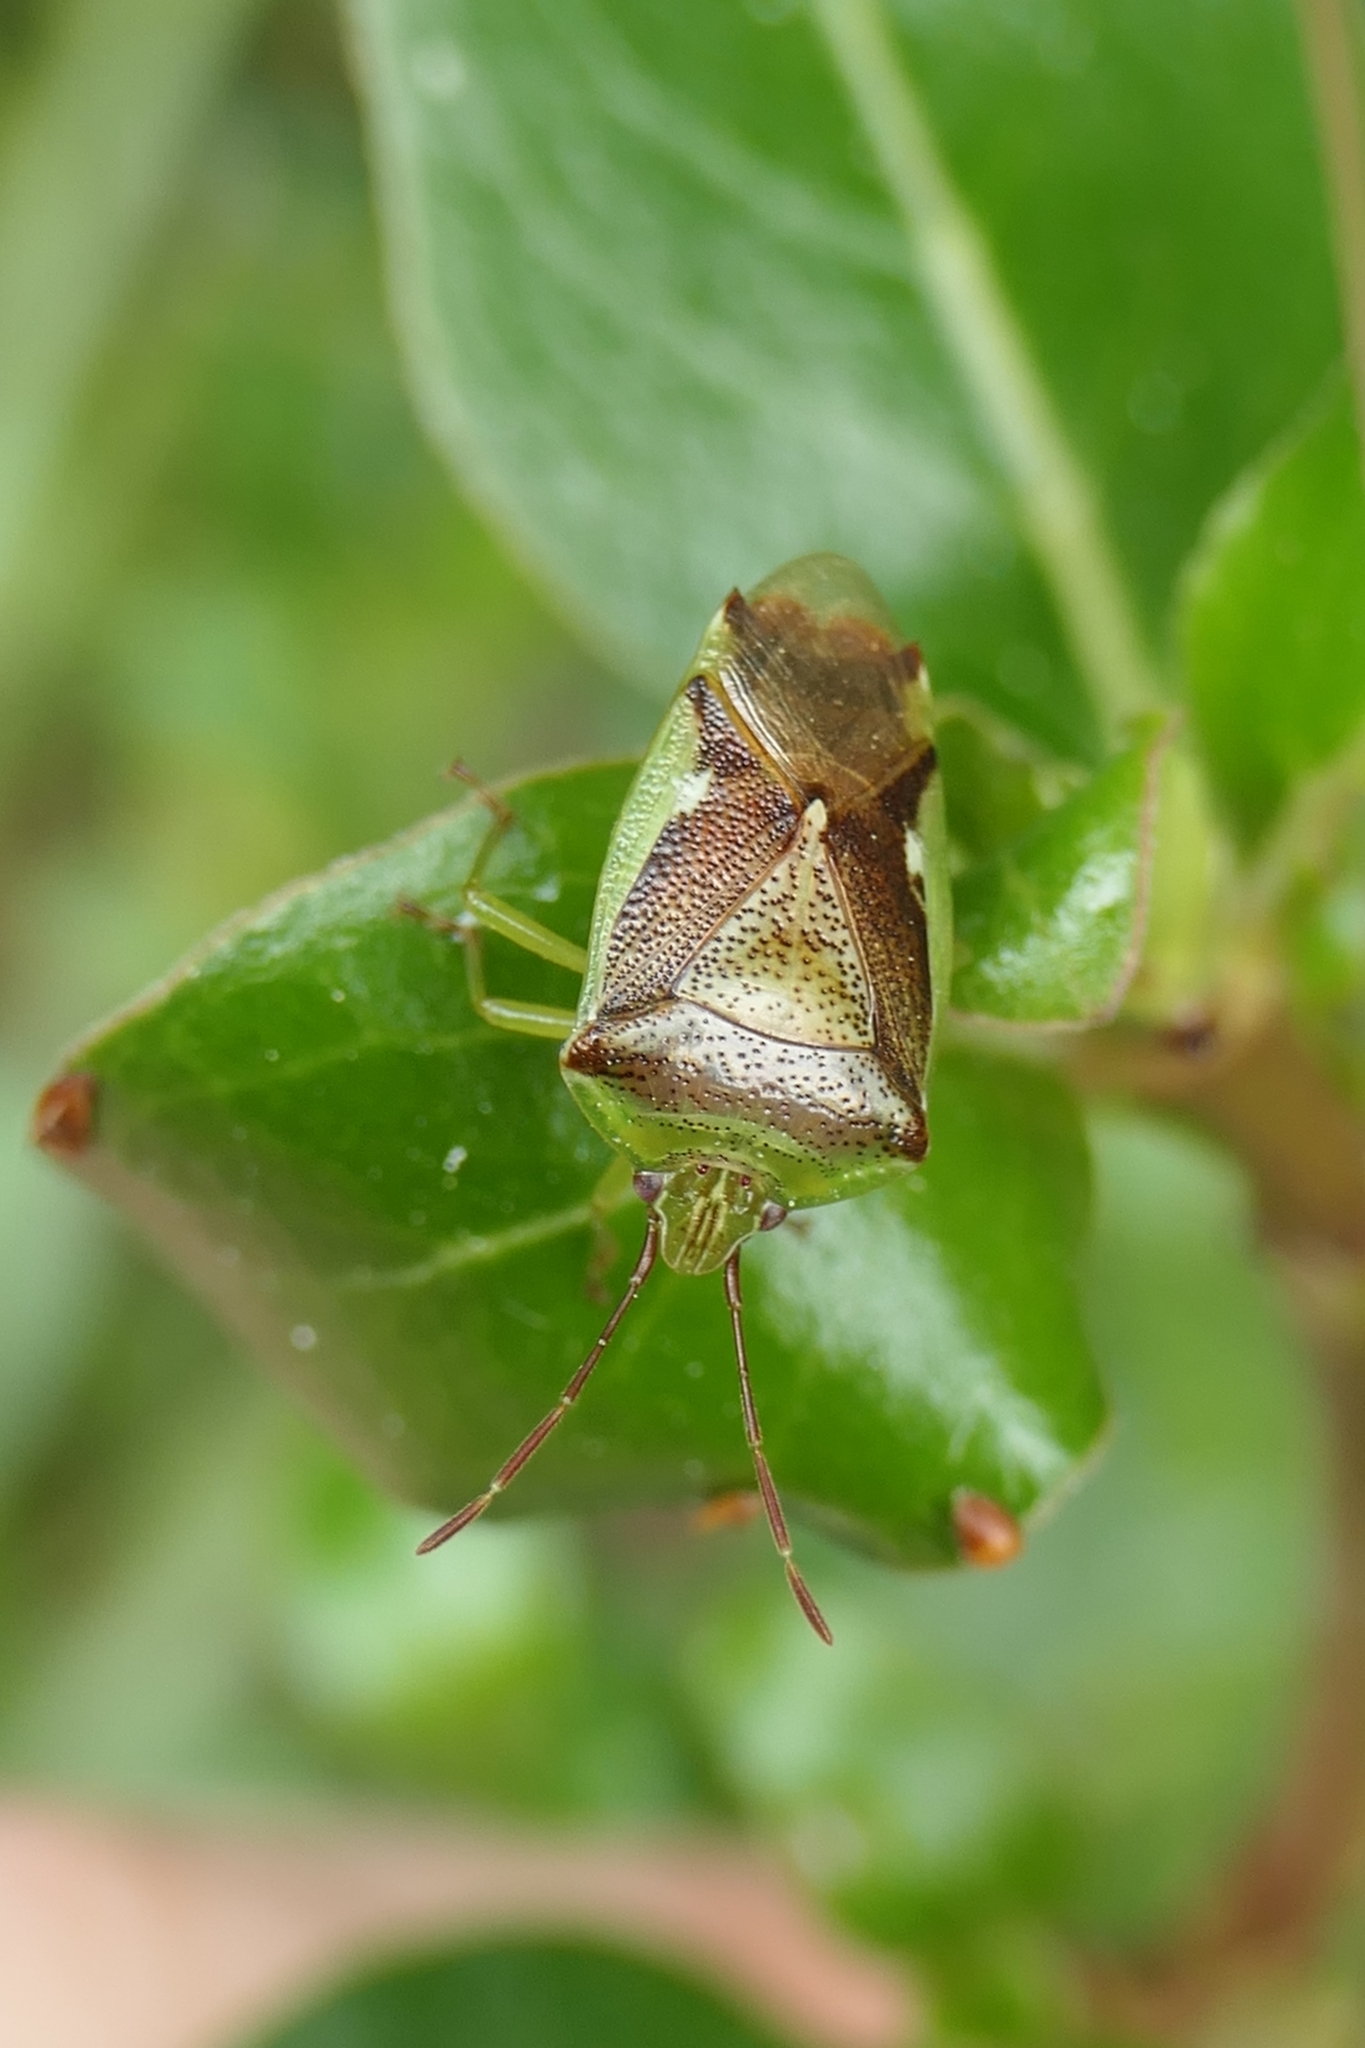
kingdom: Animalia
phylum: Arthropoda
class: Insecta
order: Hemiptera
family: Acanthosomatidae
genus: Oncacontias
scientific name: Oncacontias vittatus
